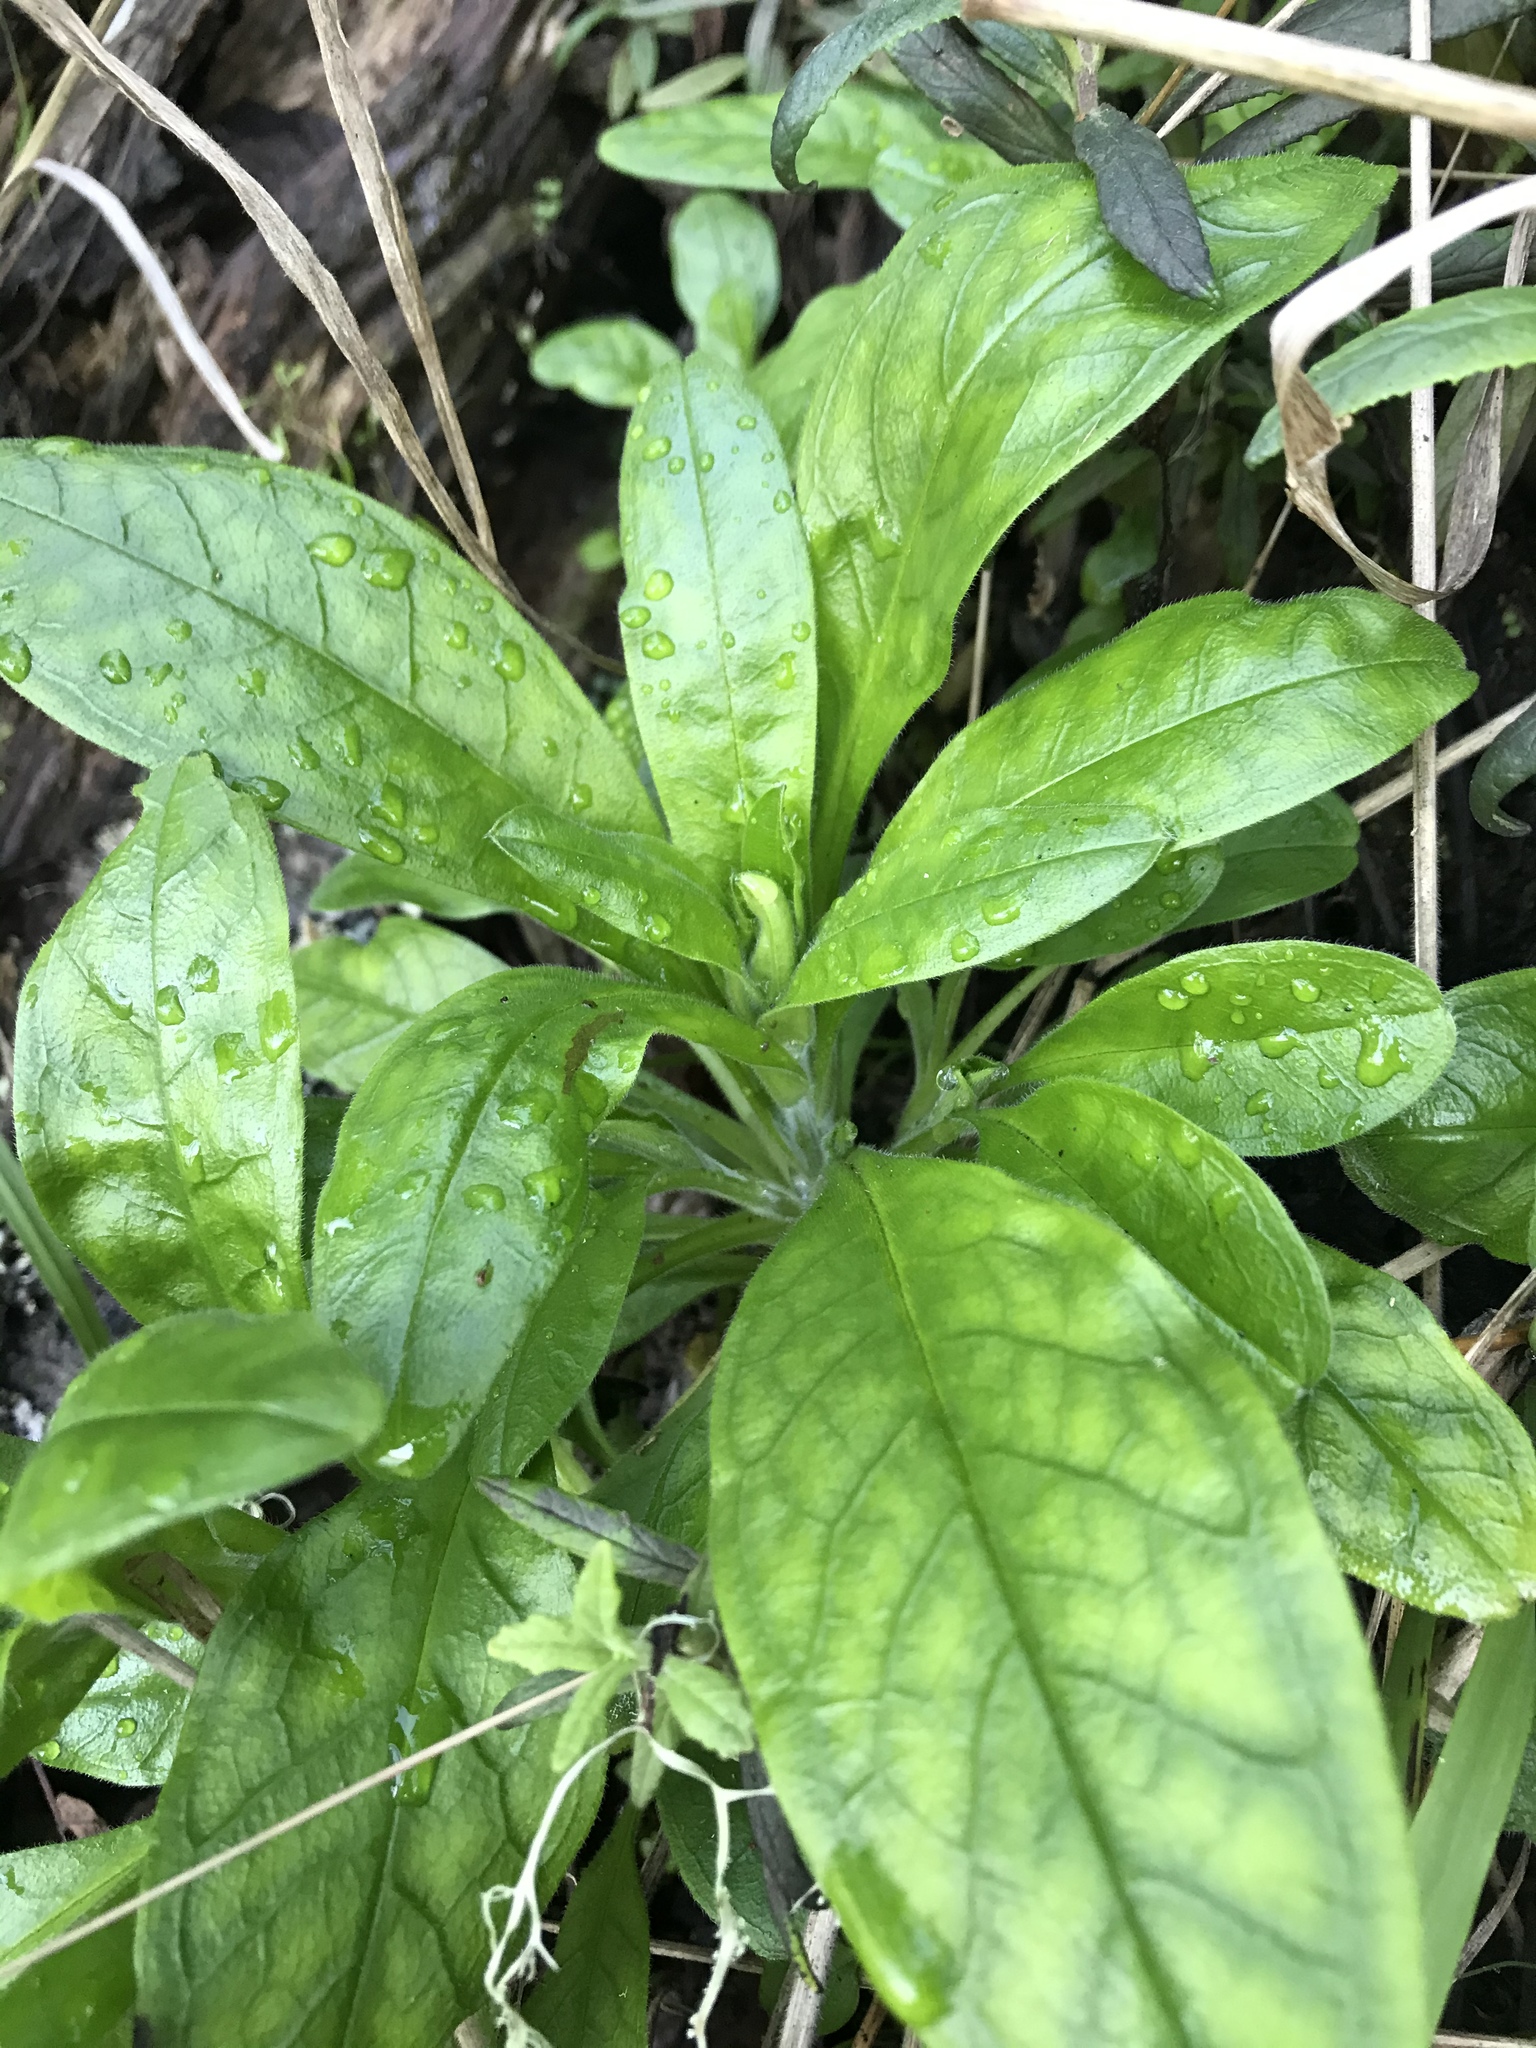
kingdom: Plantae
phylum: Tracheophyta
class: Magnoliopsida
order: Boraginales
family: Boraginaceae
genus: Myosotis
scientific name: Myosotis latifolia
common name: Broadleaf forget-me-not
